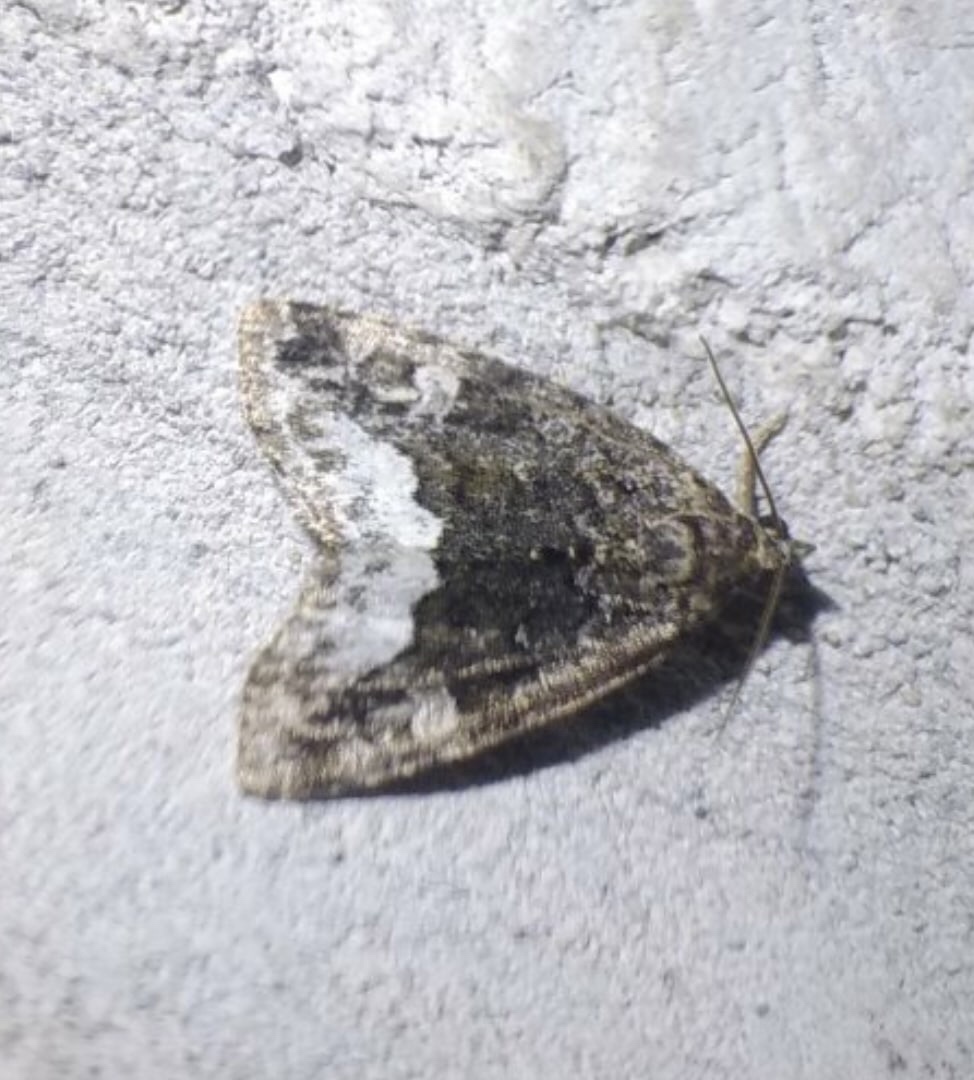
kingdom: Animalia
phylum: Arthropoda
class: Insecta
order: Lepidoptera
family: Noctuidae
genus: Deltote
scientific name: Deltote pygarga
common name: Marbled white spot
